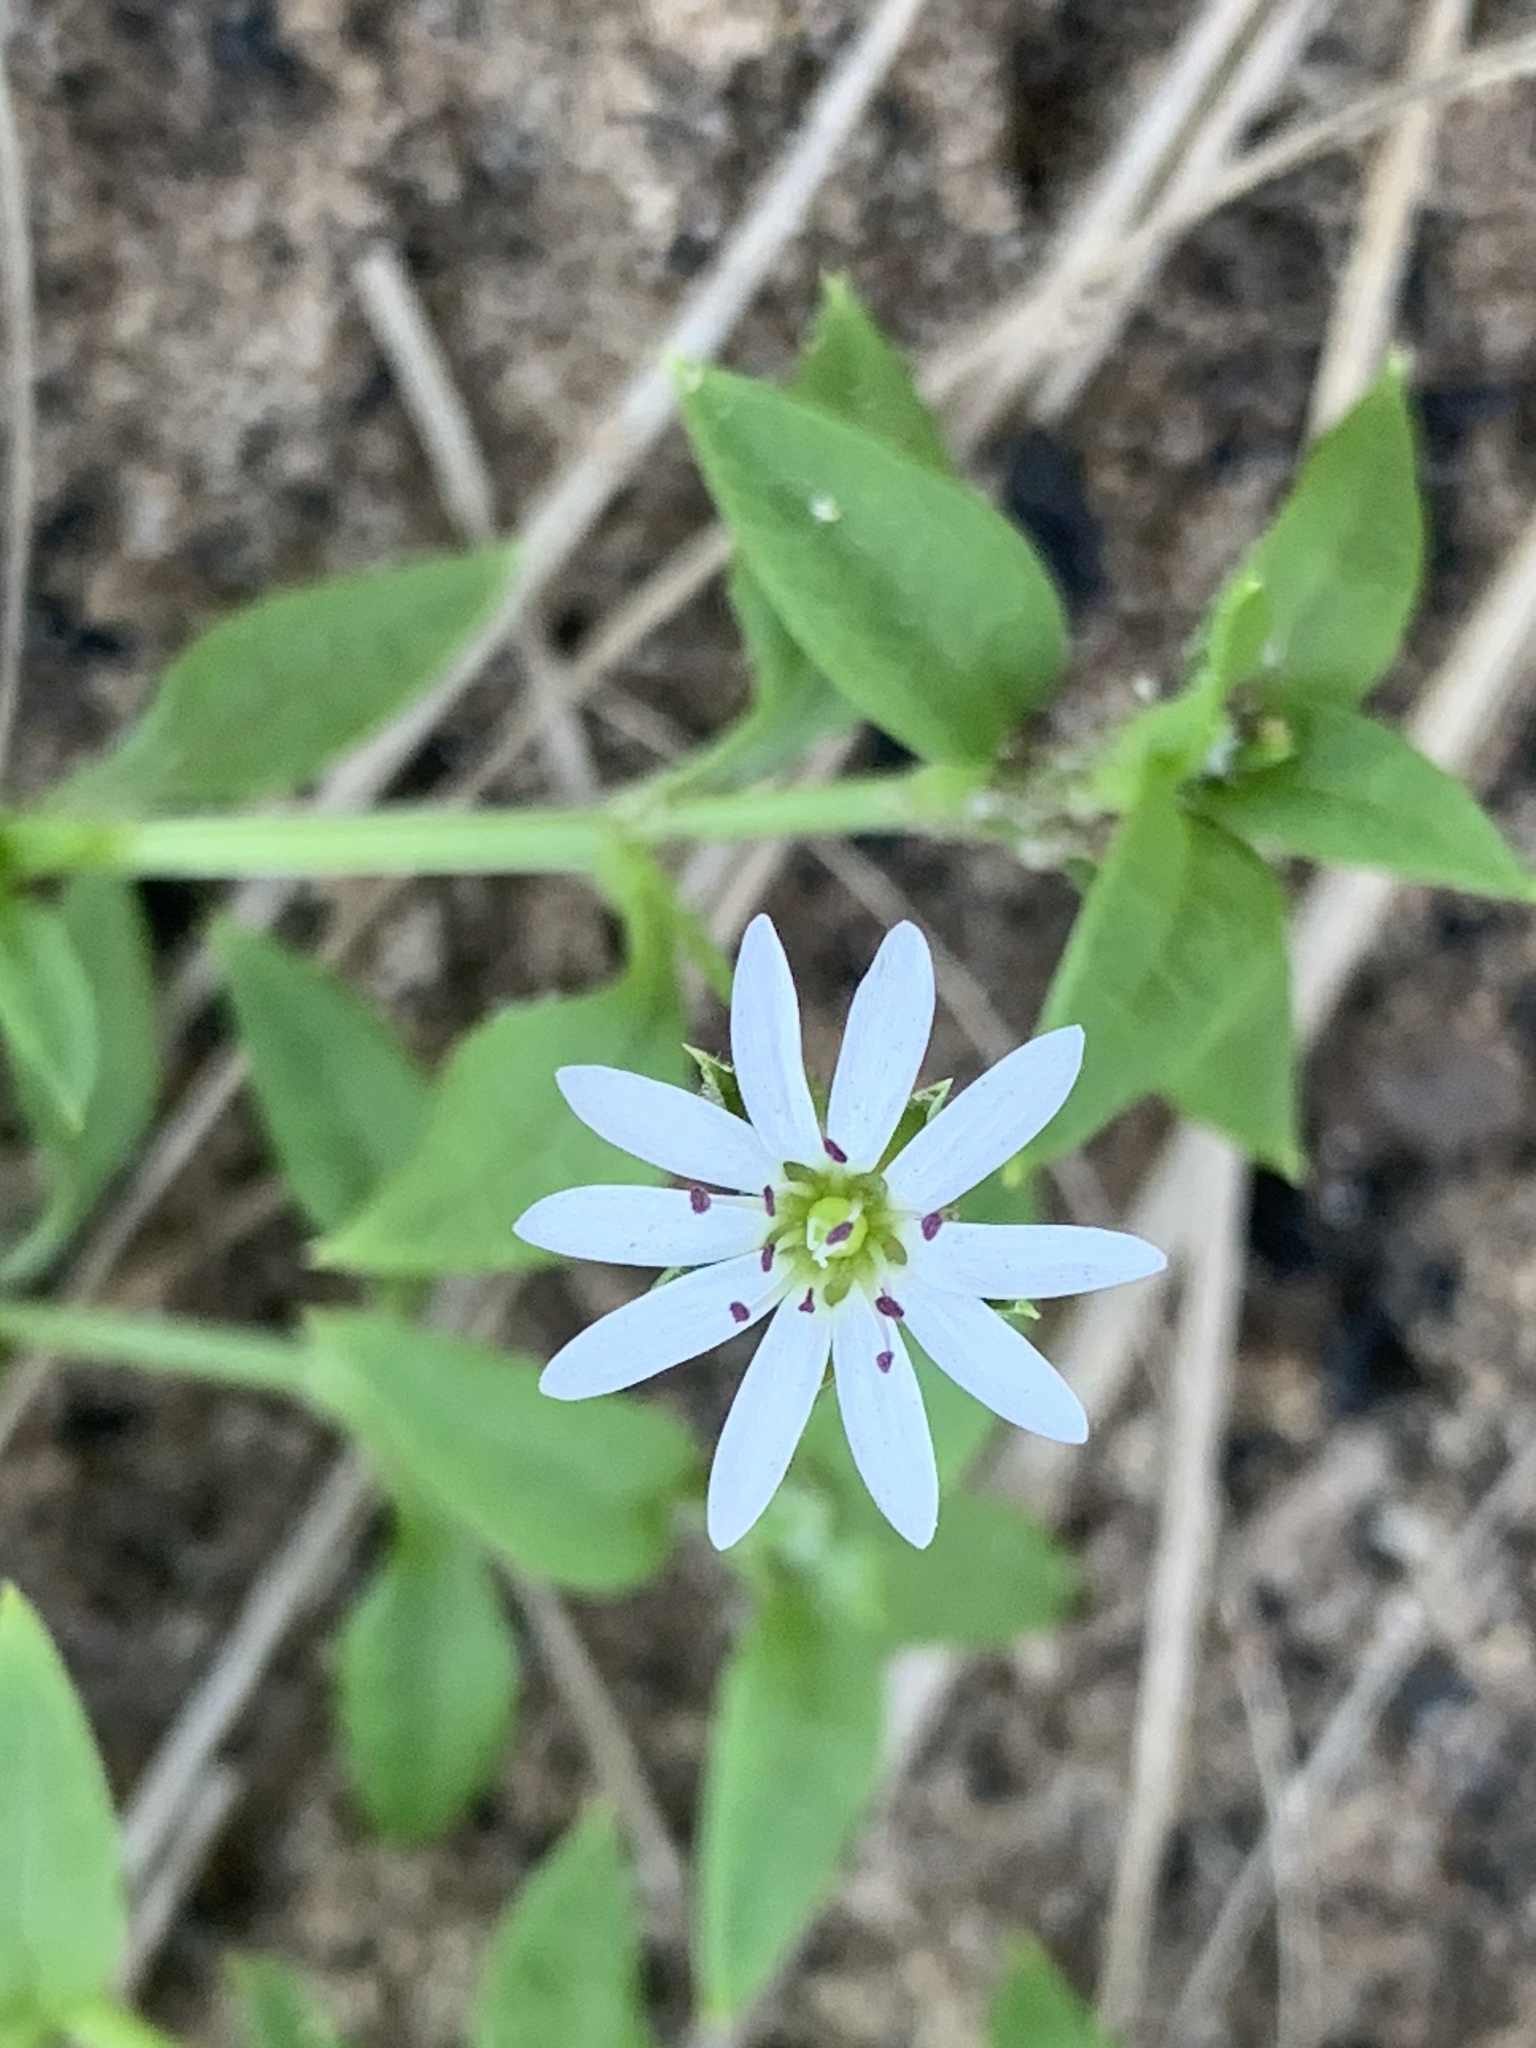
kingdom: Plantae
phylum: Tracheophyta
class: Magnoliopsida
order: Caryophyllales
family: Caryophyllaceae
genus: Stellaria
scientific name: Stellaria flaccida
